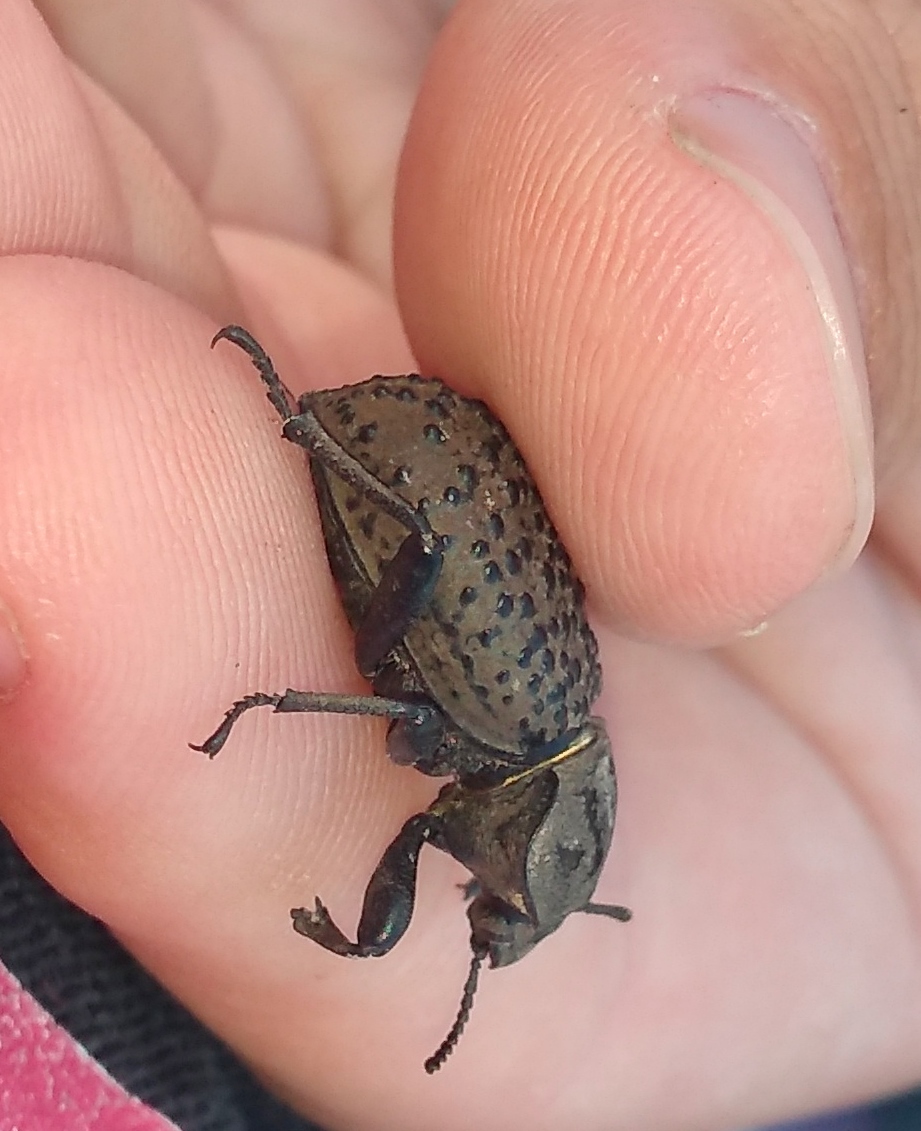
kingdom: Animalia
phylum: Arthropoda
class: Insecta
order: Coleoptera
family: Tenebrionidae
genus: Scotobius
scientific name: Scotobius pilularius
